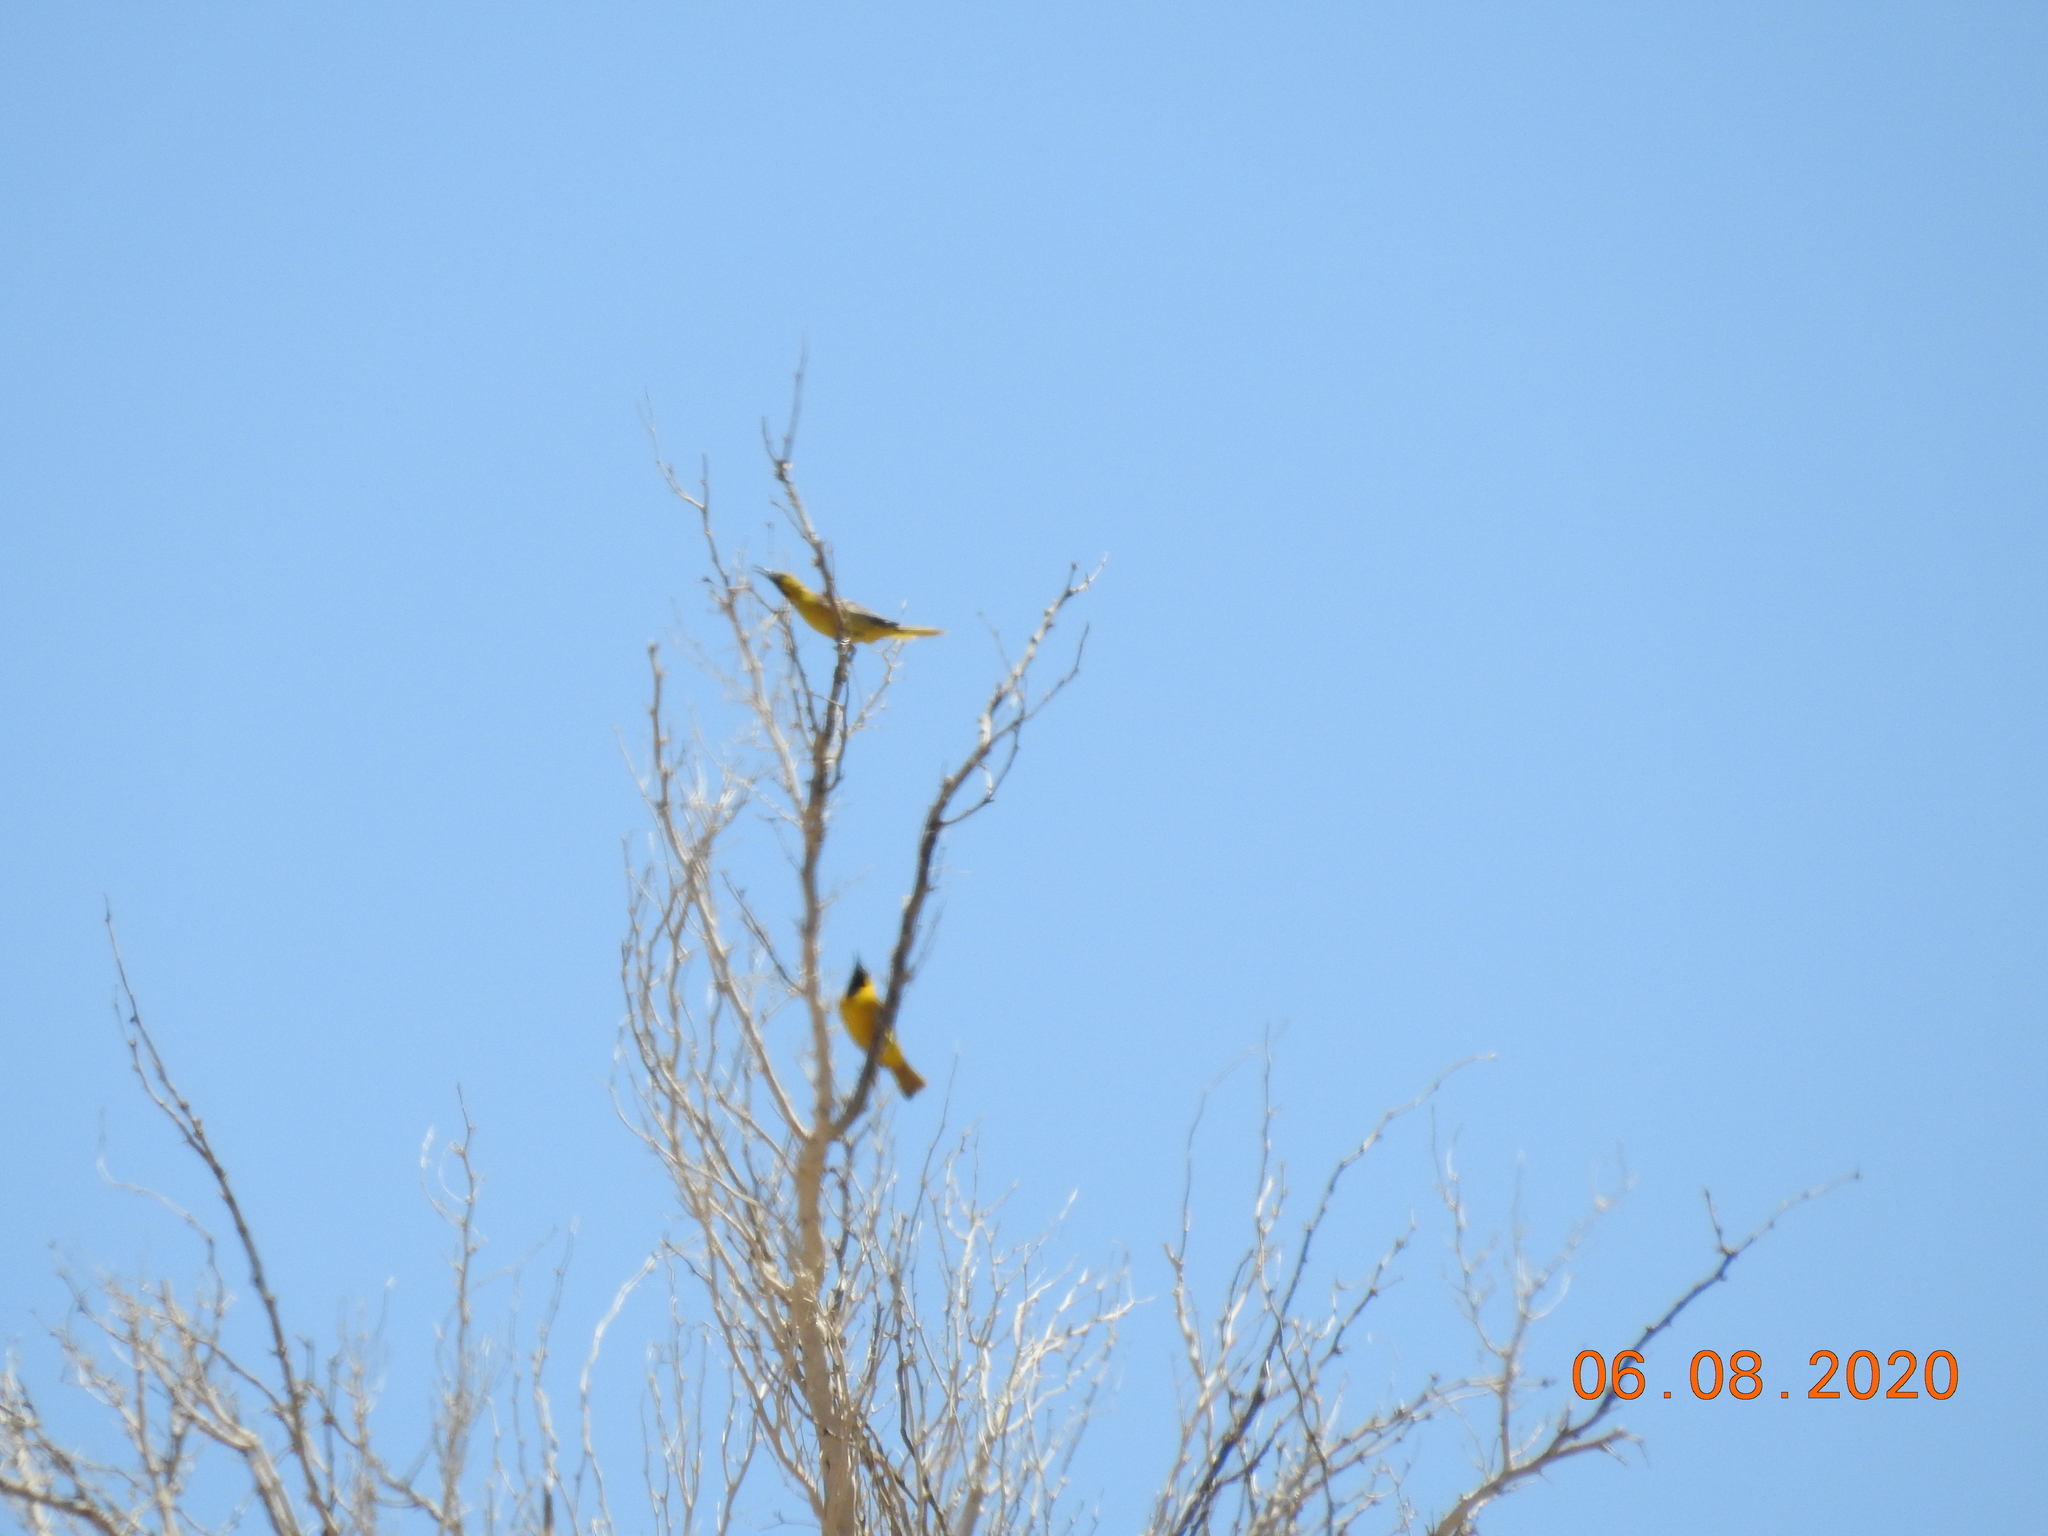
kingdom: Animalia
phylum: Chordata
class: Aves
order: Passeriformes
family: Icteridae
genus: Icterus
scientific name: Icterus cucullatus
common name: Hooded oriole
